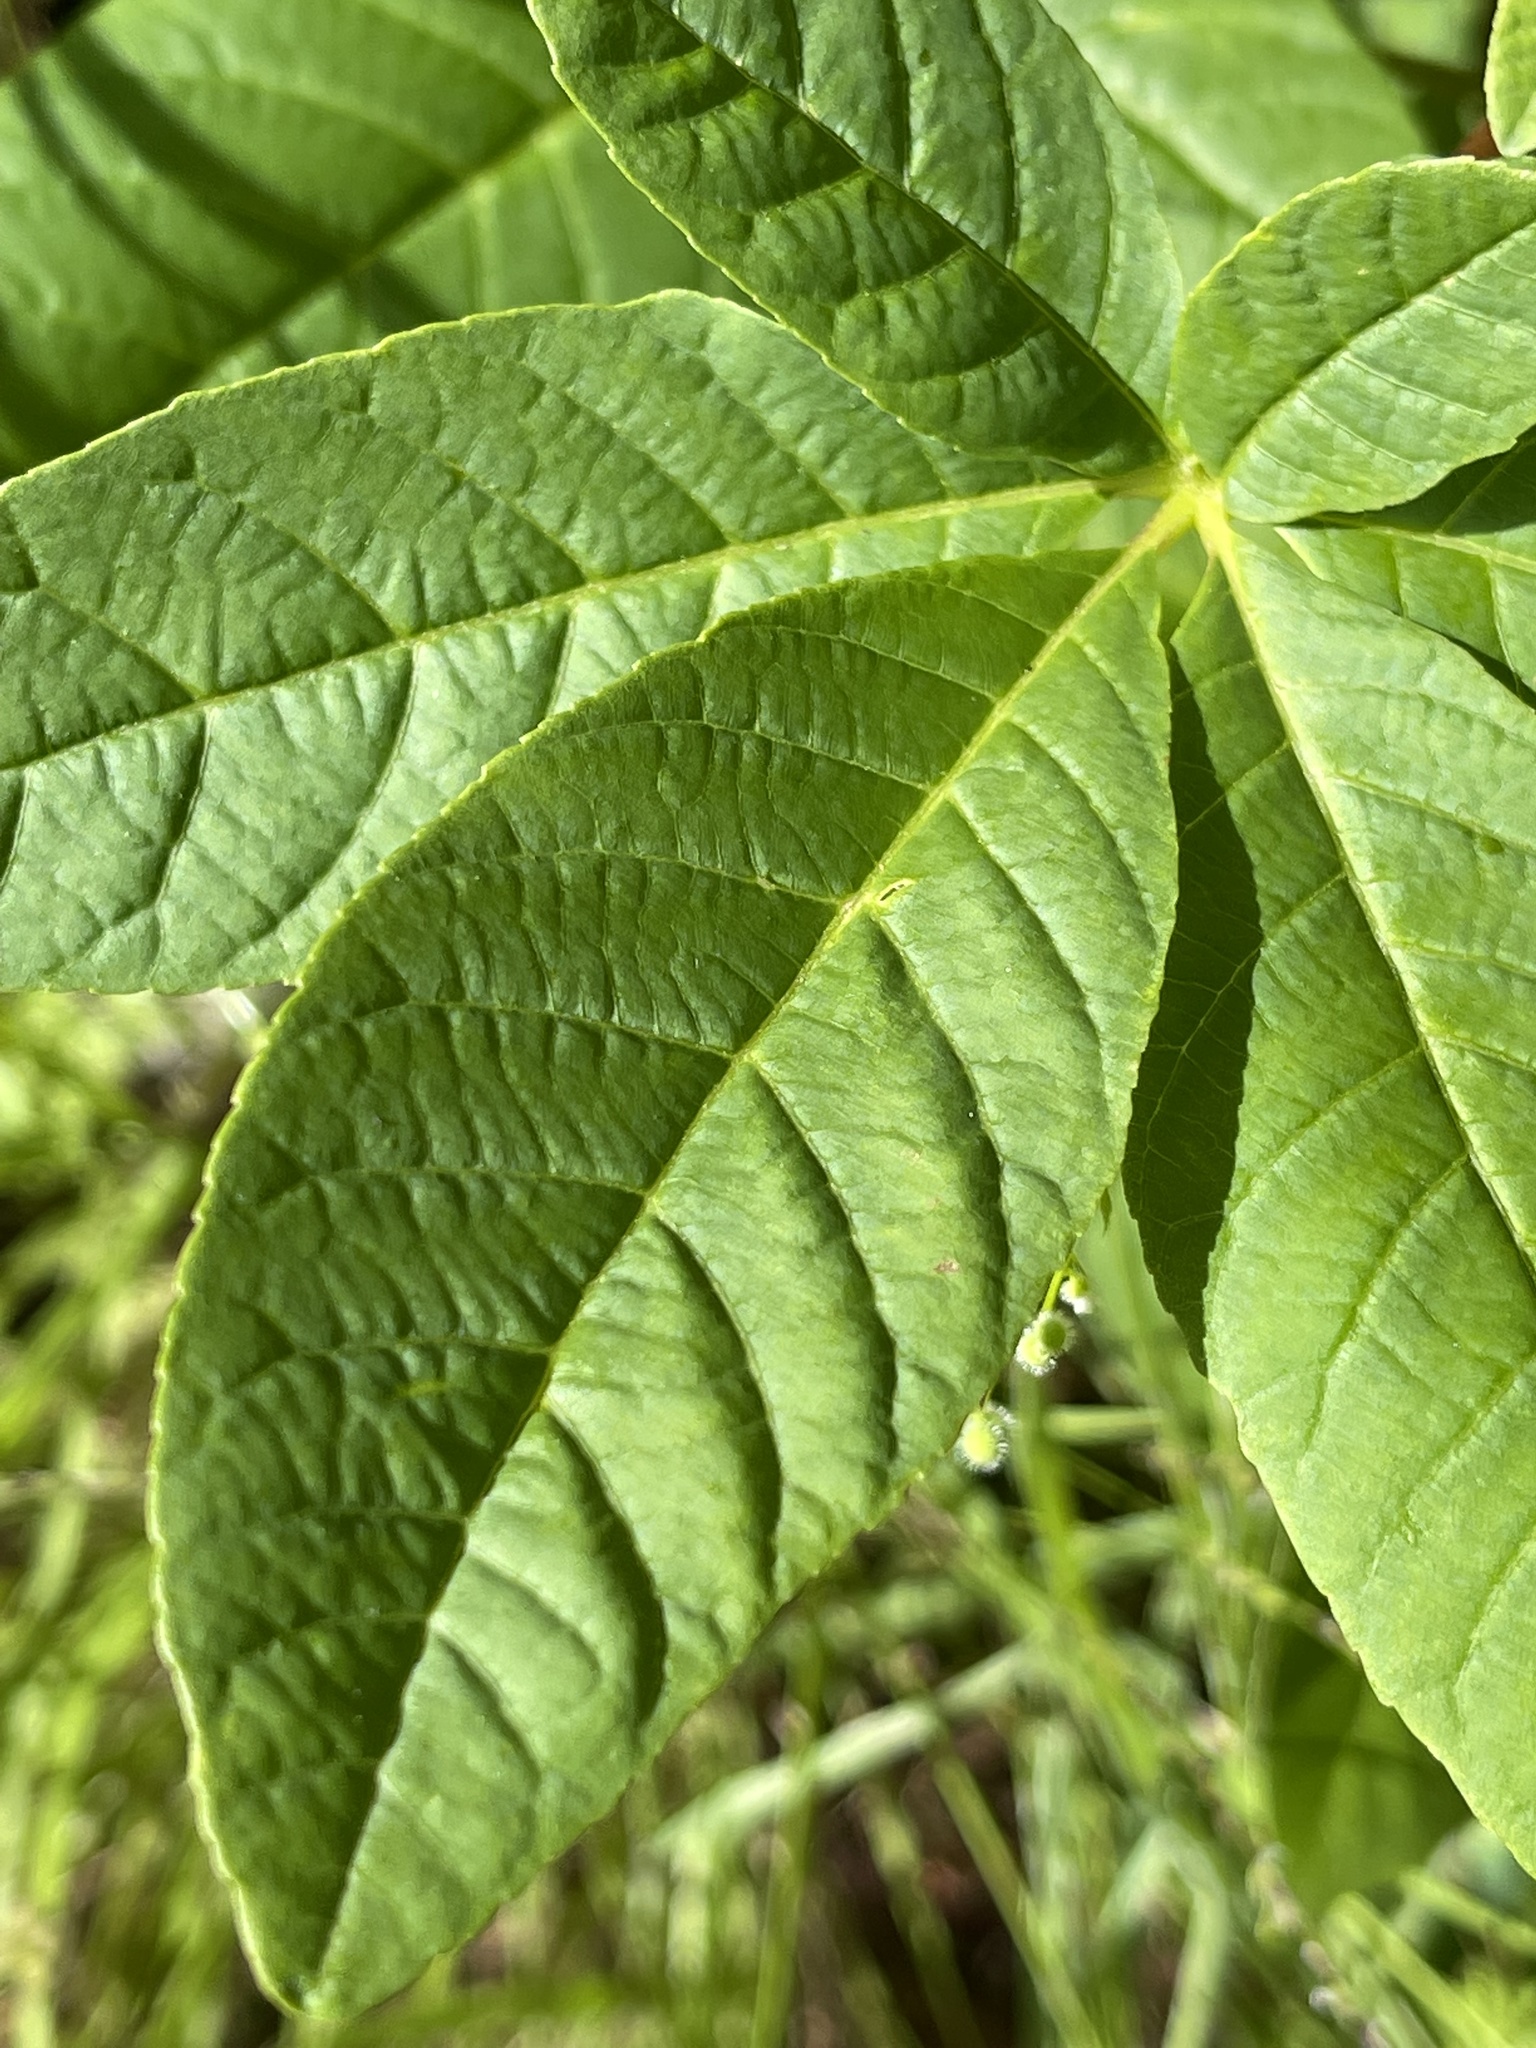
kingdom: Plantae
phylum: Tracheophyta
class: Magnoliopsida
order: Sapindales
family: Sapindaceae
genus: Aesculus
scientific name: Aesculus californica
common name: California buckeye
